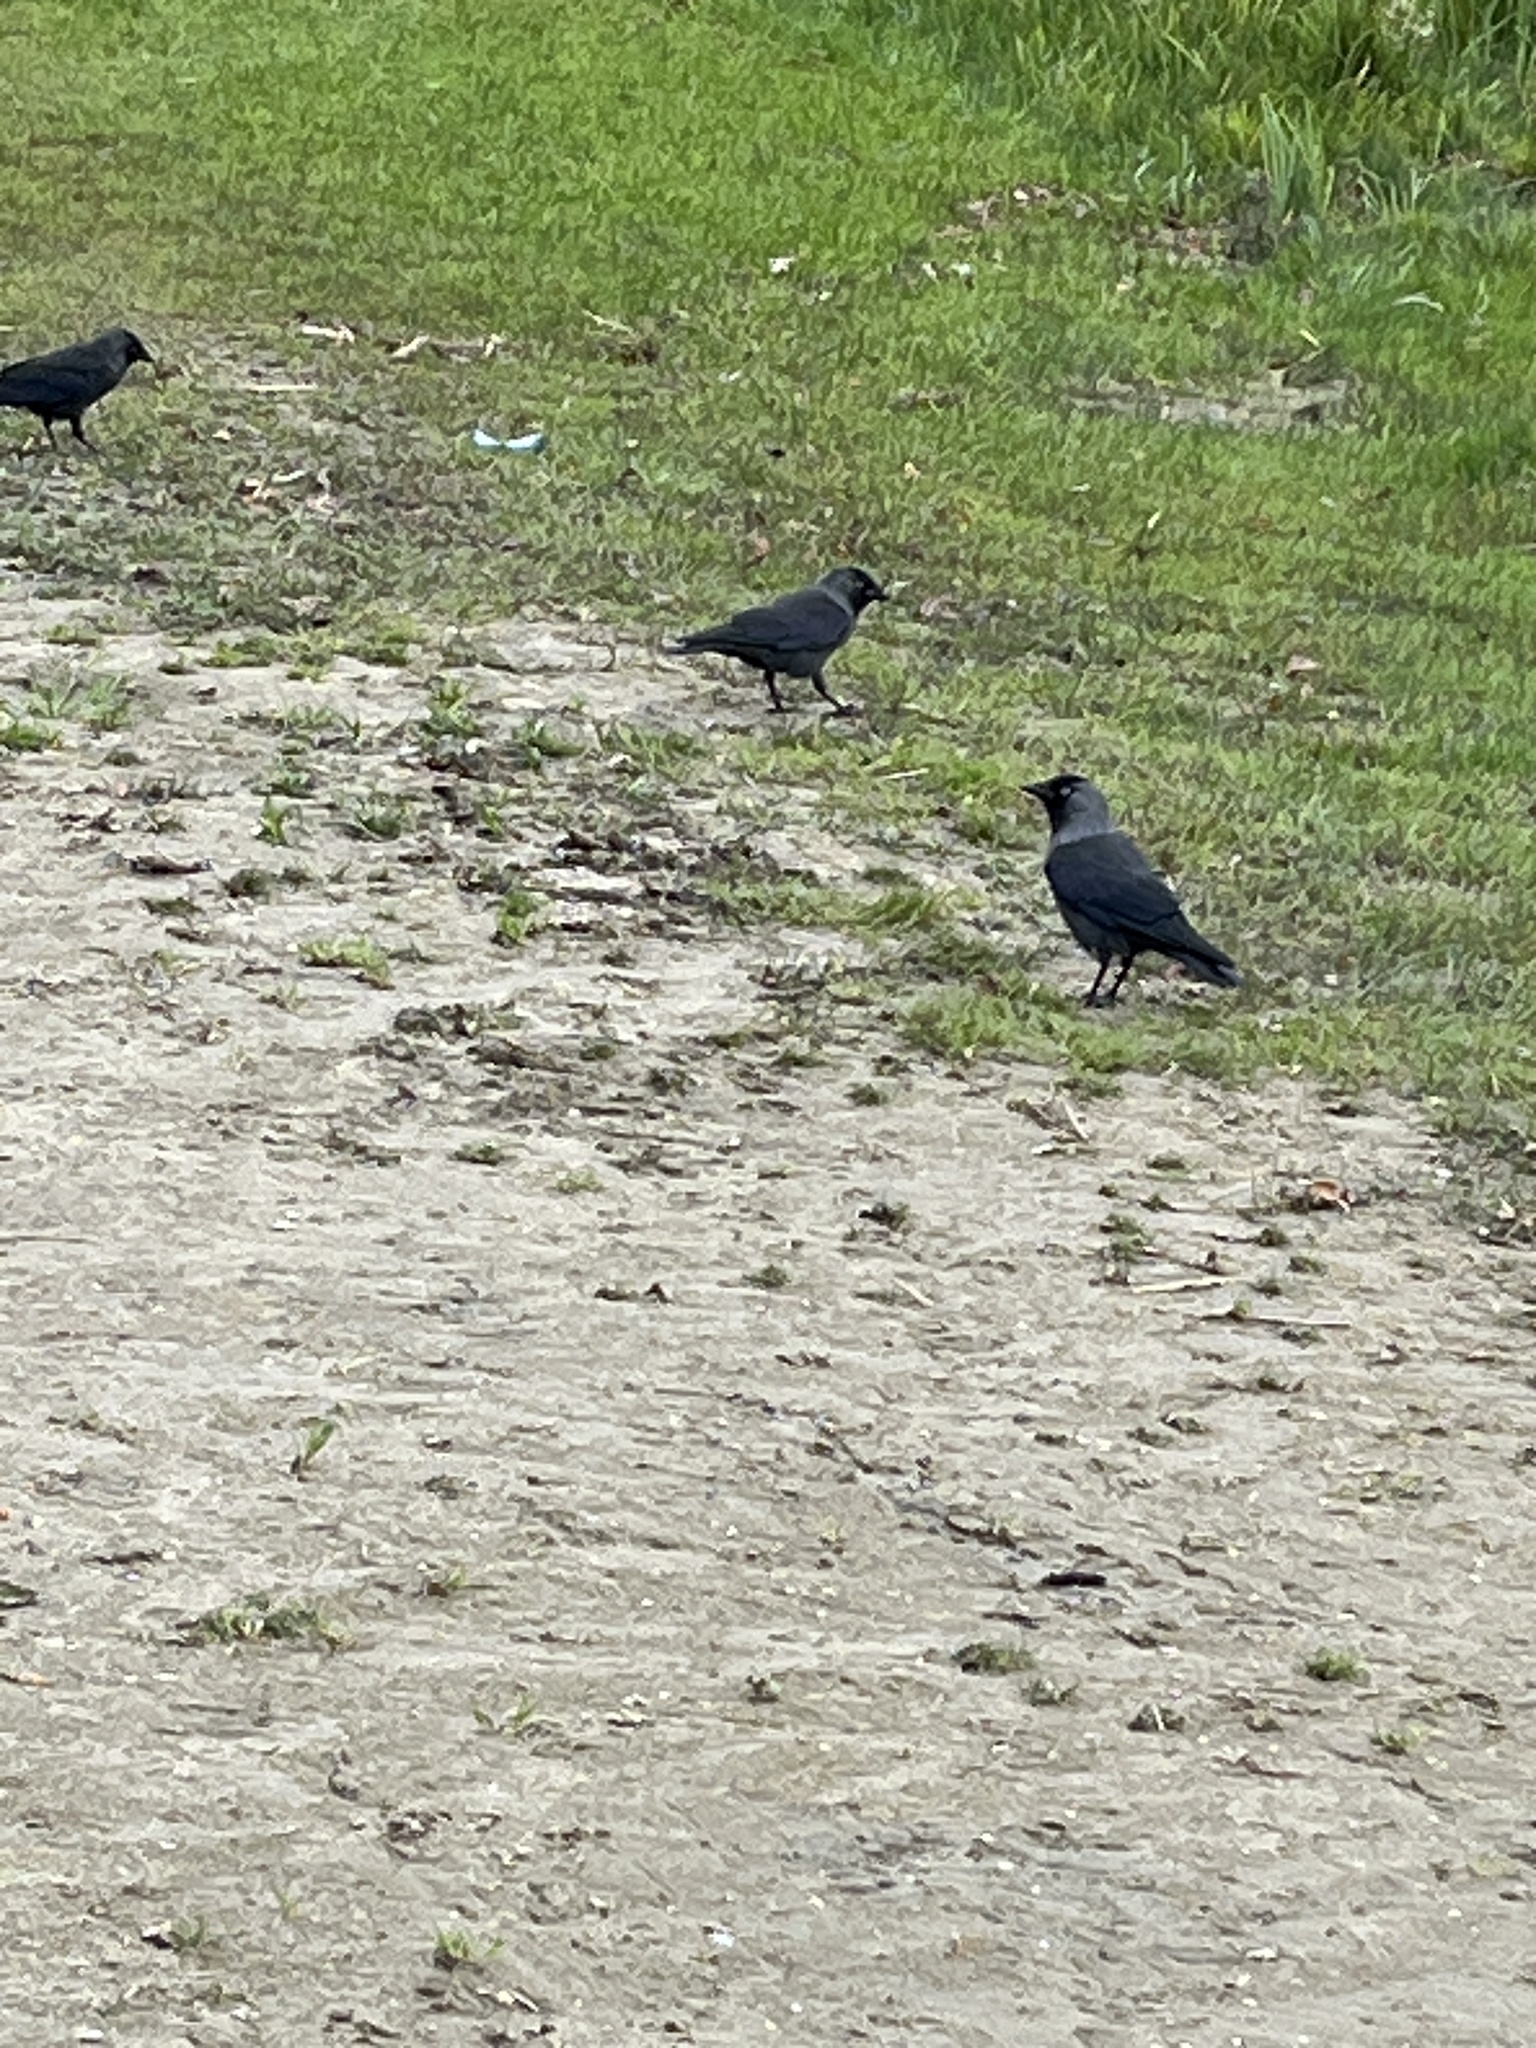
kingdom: Animalia
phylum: Chordata
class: Aves
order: Passeriformes
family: Corvidae
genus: Coloeus
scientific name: Coloeus monedula
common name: Western jackdaw
